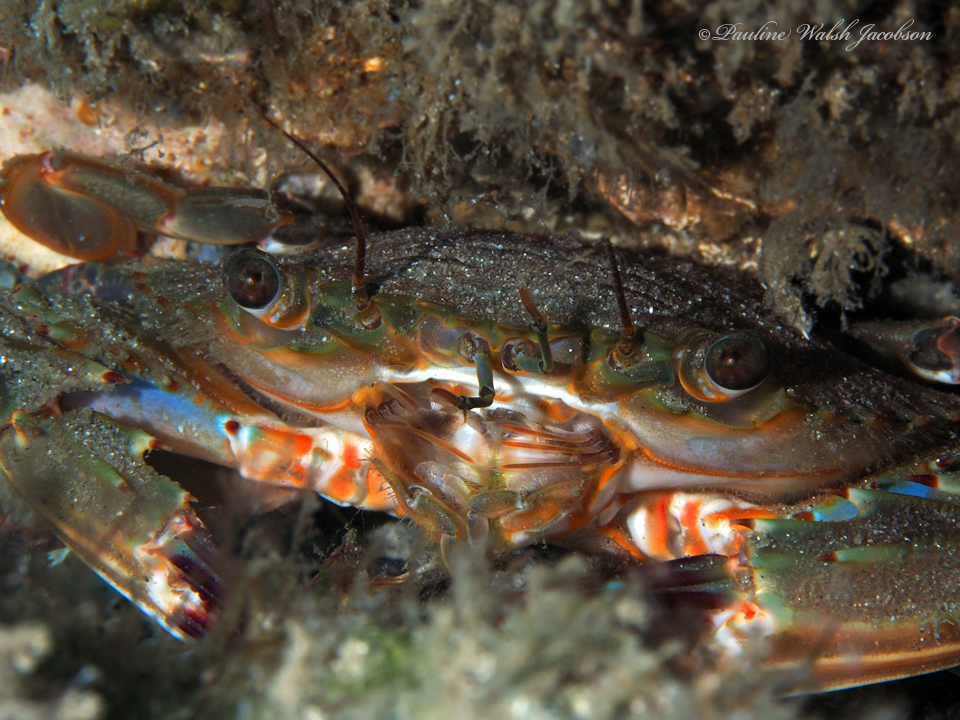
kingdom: Animalia
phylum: Arthropoda
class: Malacostraca
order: Decapoda
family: Portunidae
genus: Charybdis
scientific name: Charybdis hellerii
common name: Spiny hands
